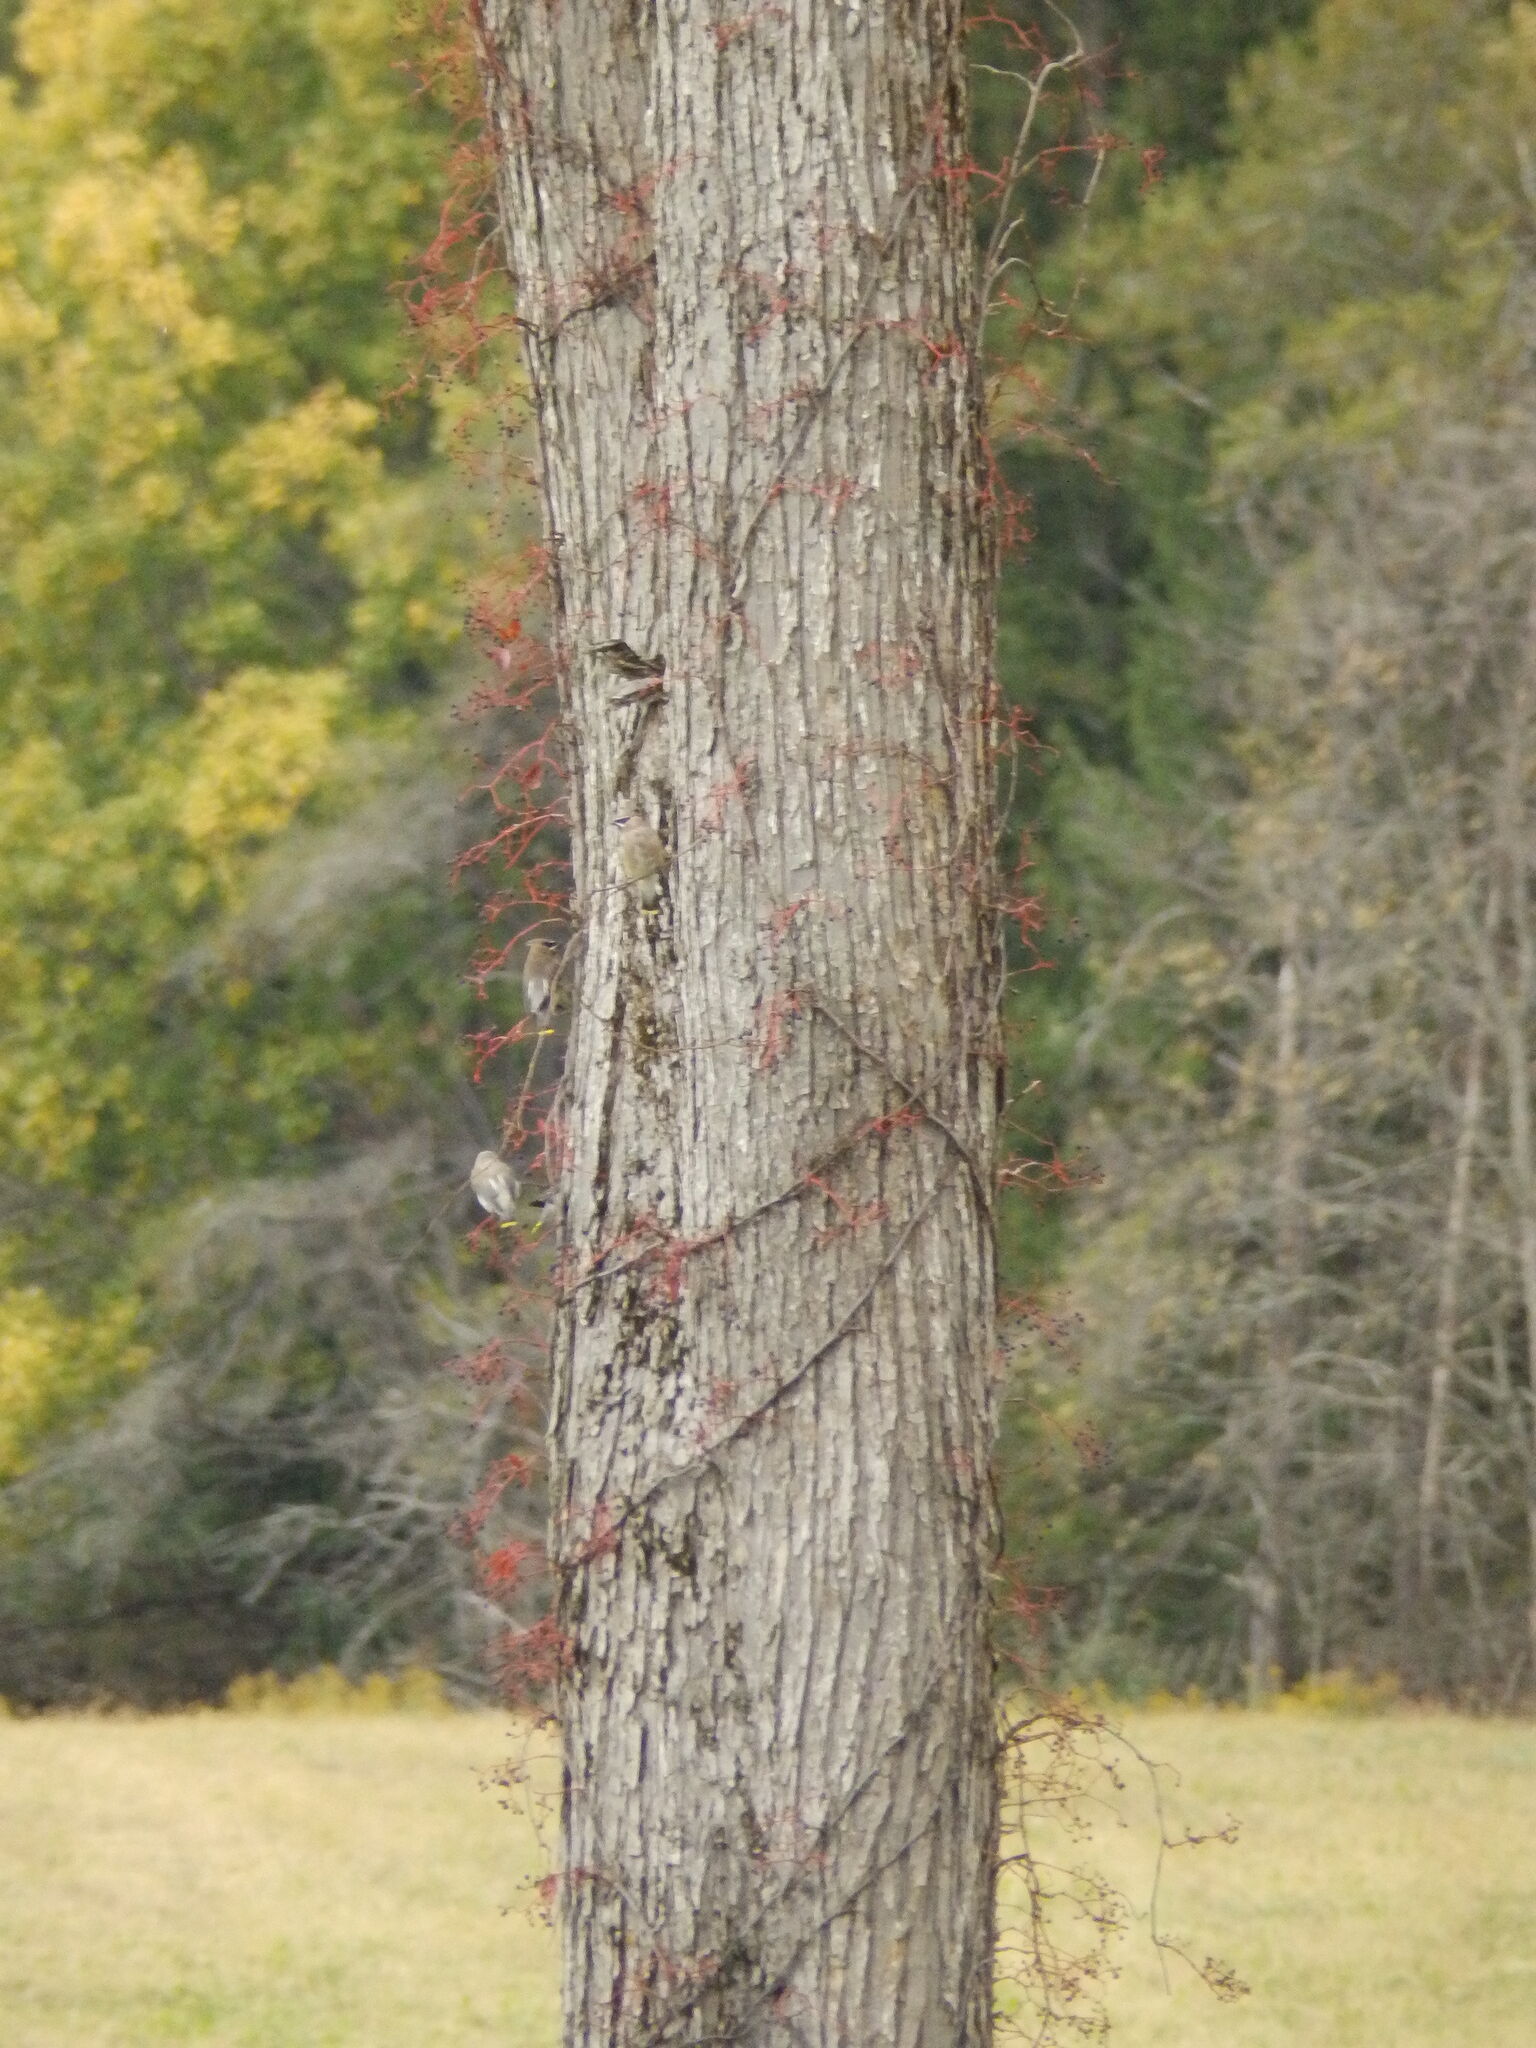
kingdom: Animalia
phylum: Chordata
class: Aves
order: Passeriformes
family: Bombycillidae
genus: Bombycilla
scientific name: Bombycilla cedrorum
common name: Cedar waxwing
